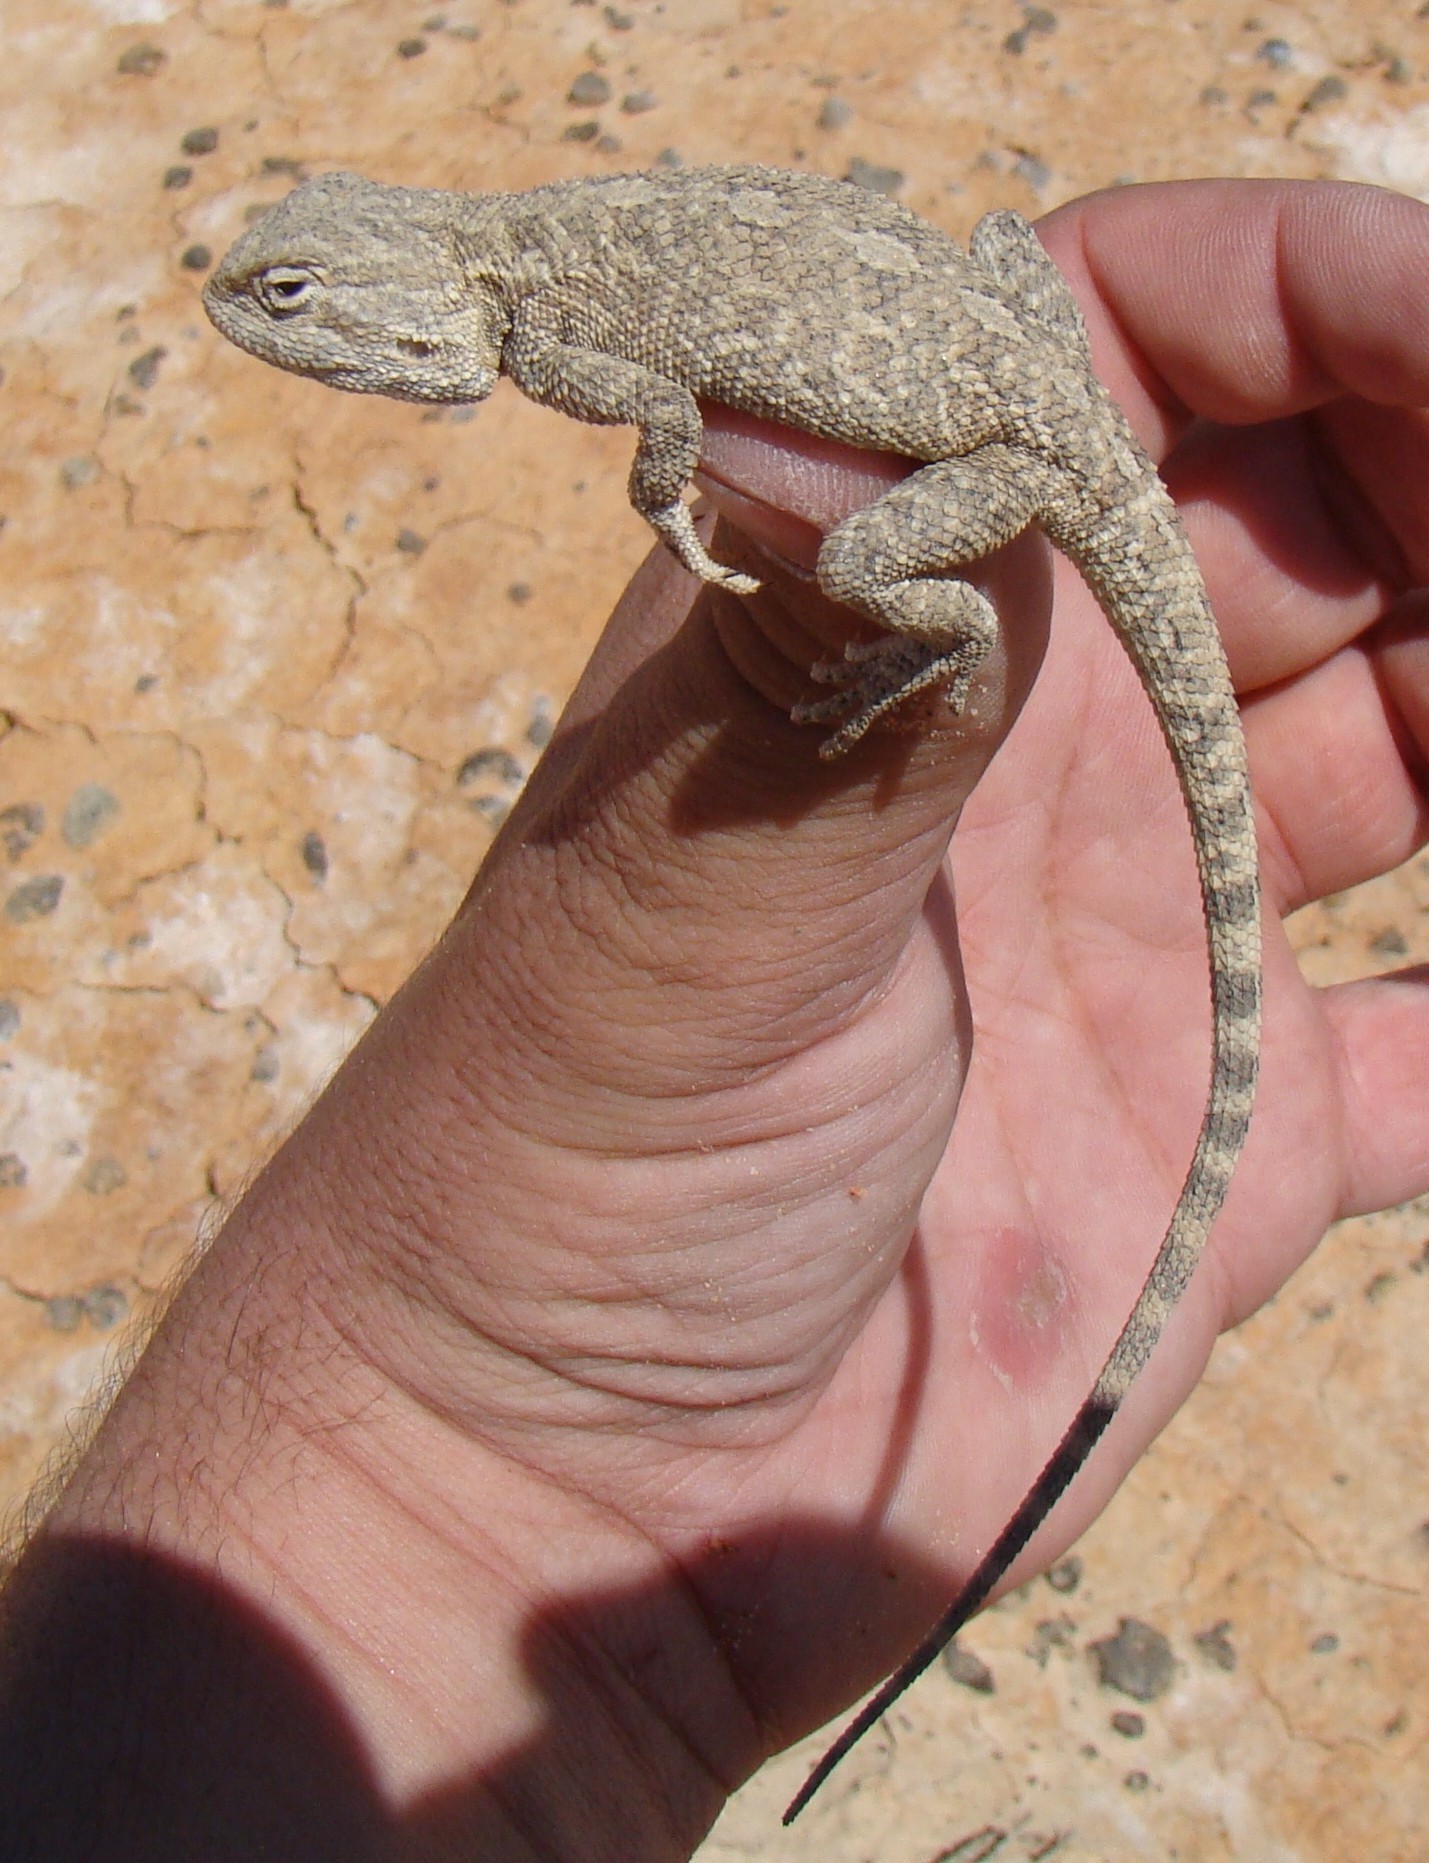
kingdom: Animalia
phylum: Chordata
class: Squamata
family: Agamidae
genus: Trapelus
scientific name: Trapelus sanguinolentus
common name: Steppe agama
